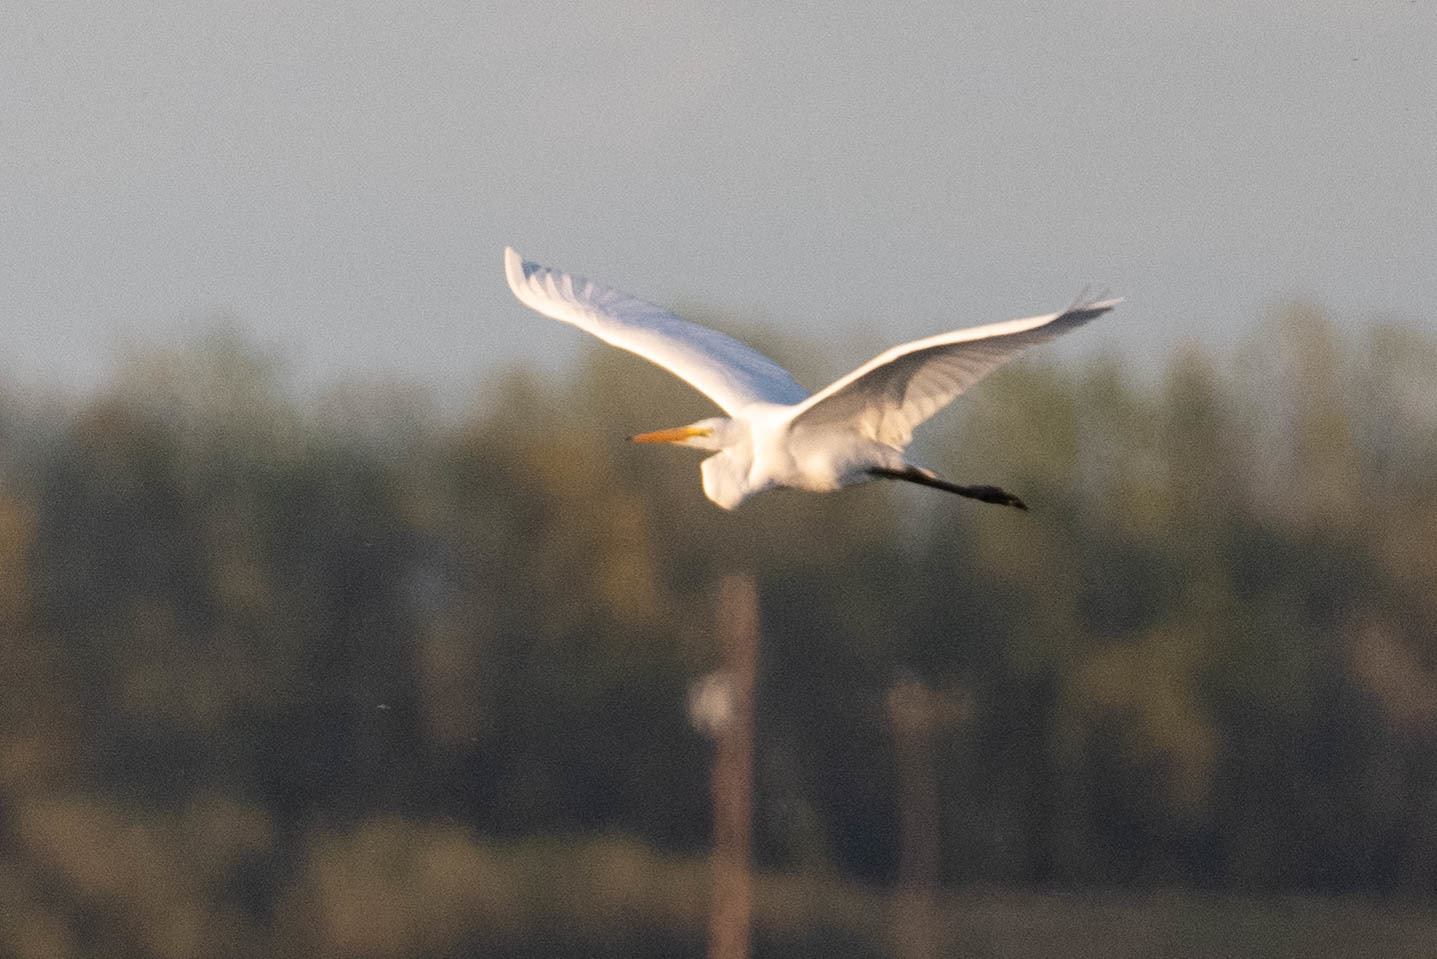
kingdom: Animalia
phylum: Chordata
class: Aves
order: Pelecaniformes
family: Ardeidae
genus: Ardea
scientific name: Ardea alba
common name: Great egret
